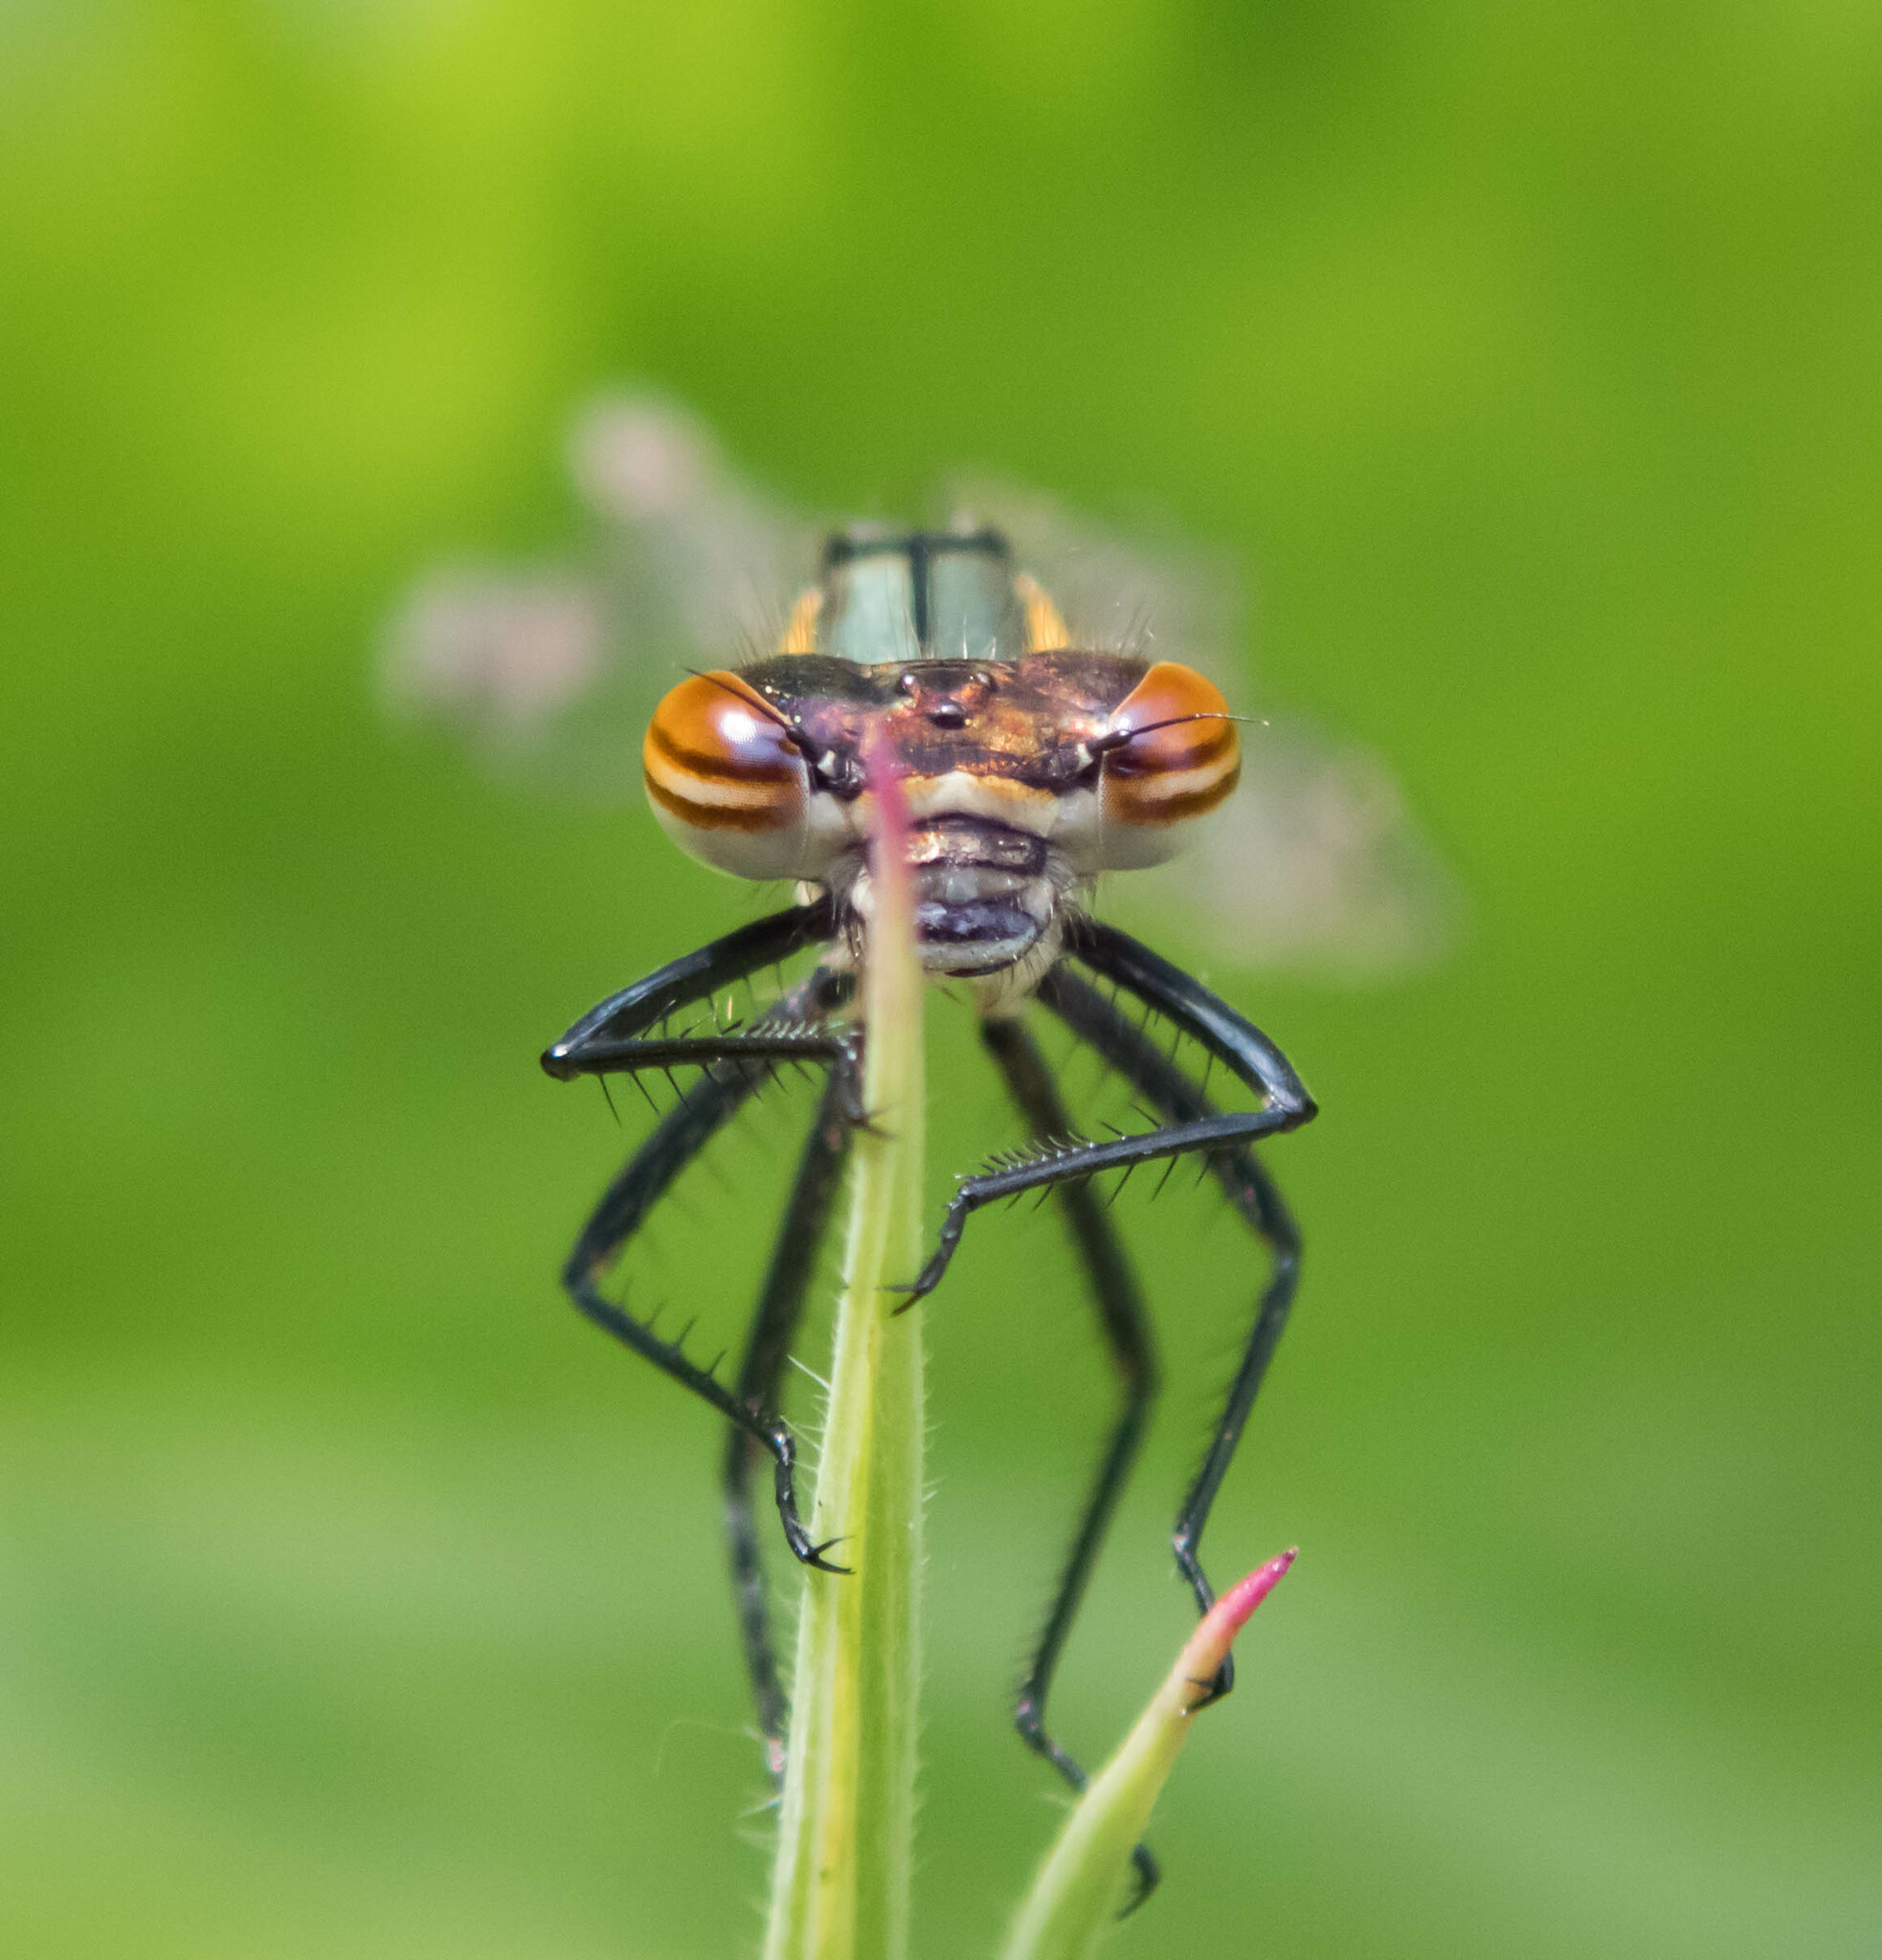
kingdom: Animalia
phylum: Arthropoda
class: Insecta
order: Odonata
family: Coenagrionidae
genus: Pyrrhosoma
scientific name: Pyrrhosoma nymphula
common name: Large red damsel
